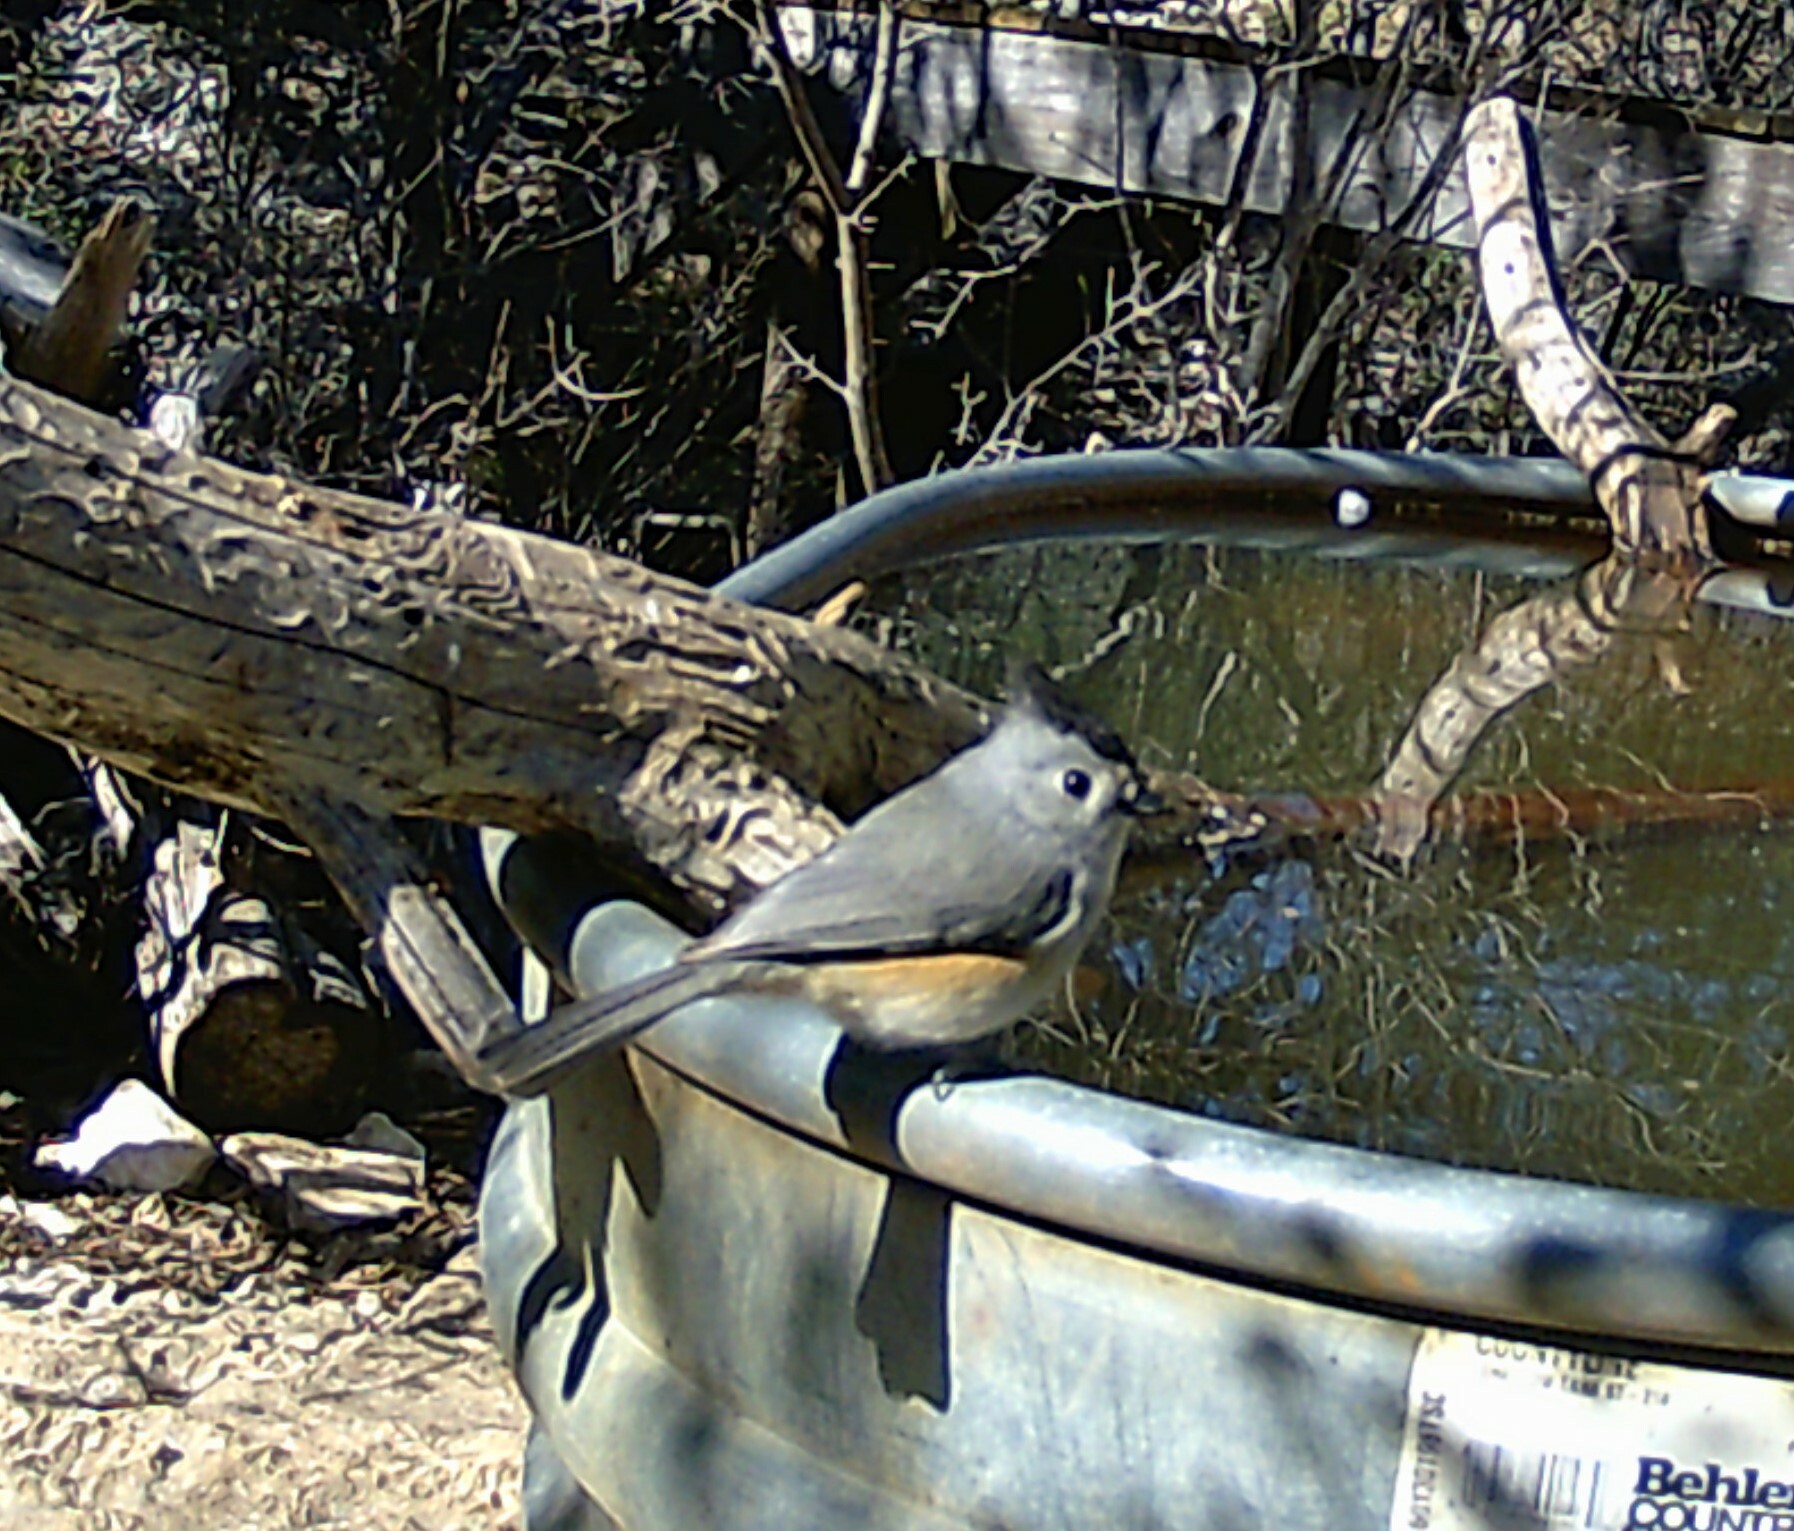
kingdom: Animalia
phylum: Chordata
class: Aves
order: Passeriformes
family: Paridae
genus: Baeolophus
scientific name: Baeolophus atricristatus
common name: Black-crested titmouse
